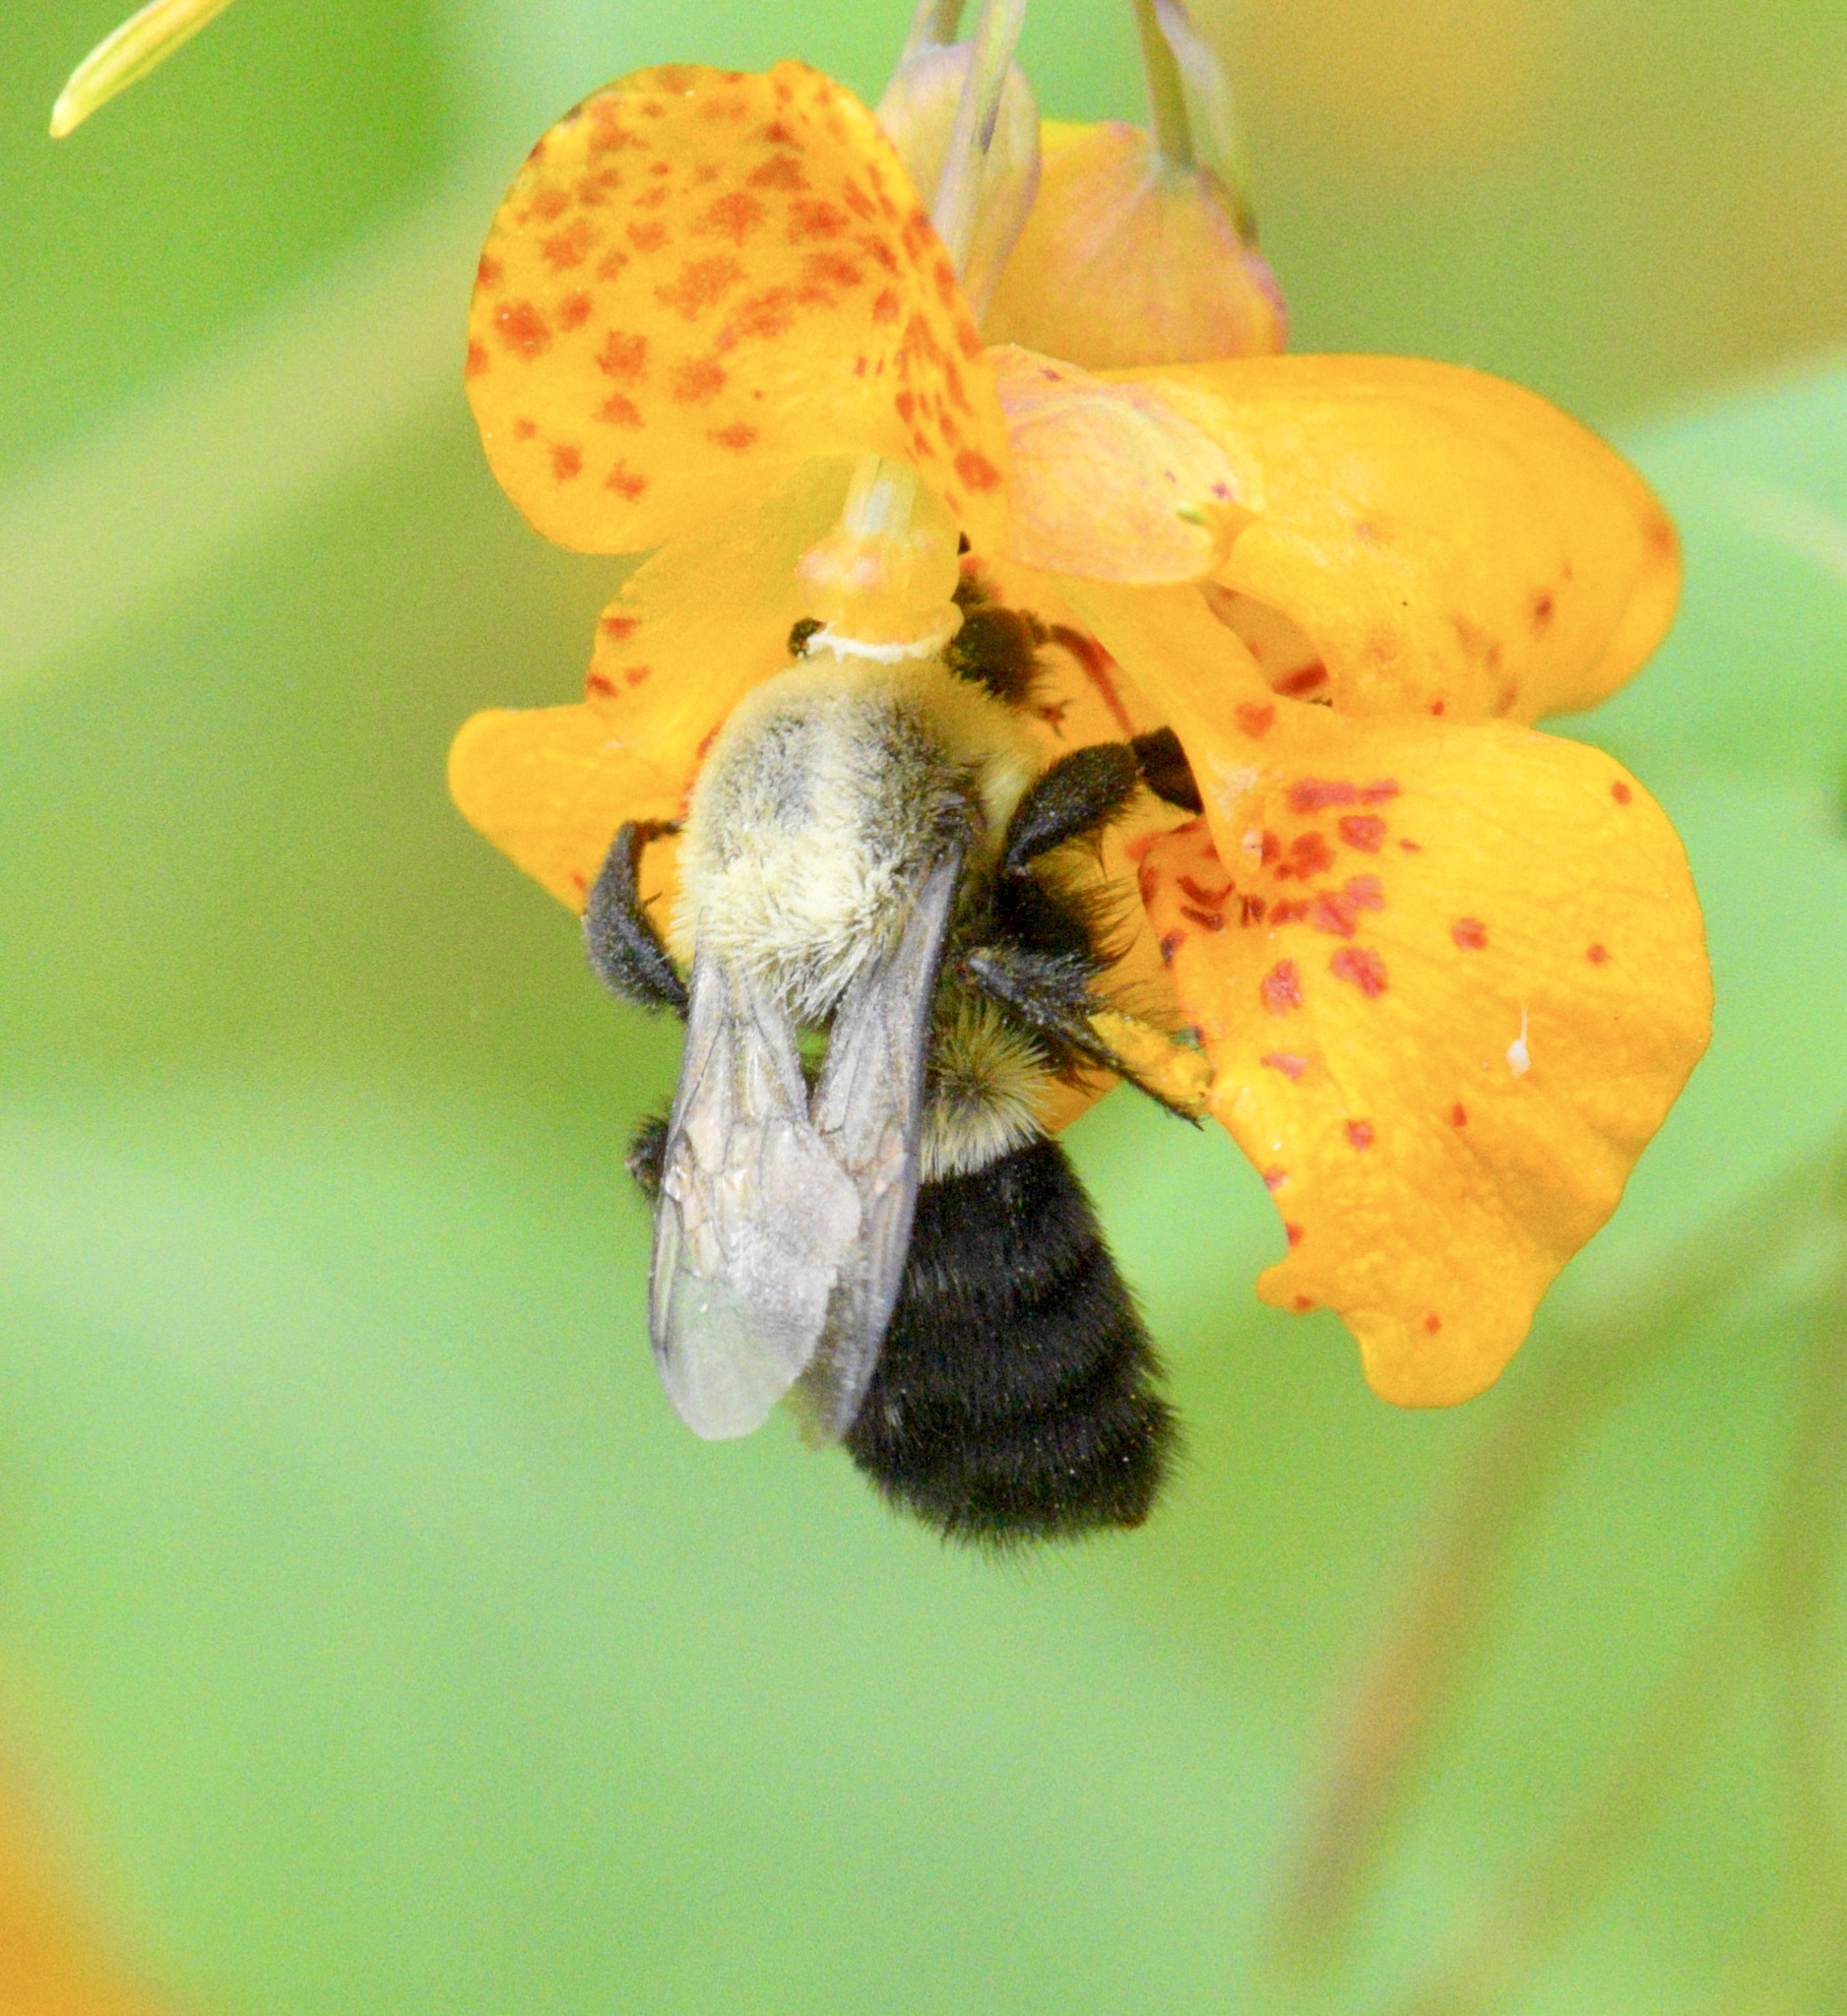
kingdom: Animalia
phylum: Arthropoda
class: Insecta
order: Hymenoptera
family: Apidae
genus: Bombus
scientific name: Bombus impatiens
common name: Common eastern bumble bee
